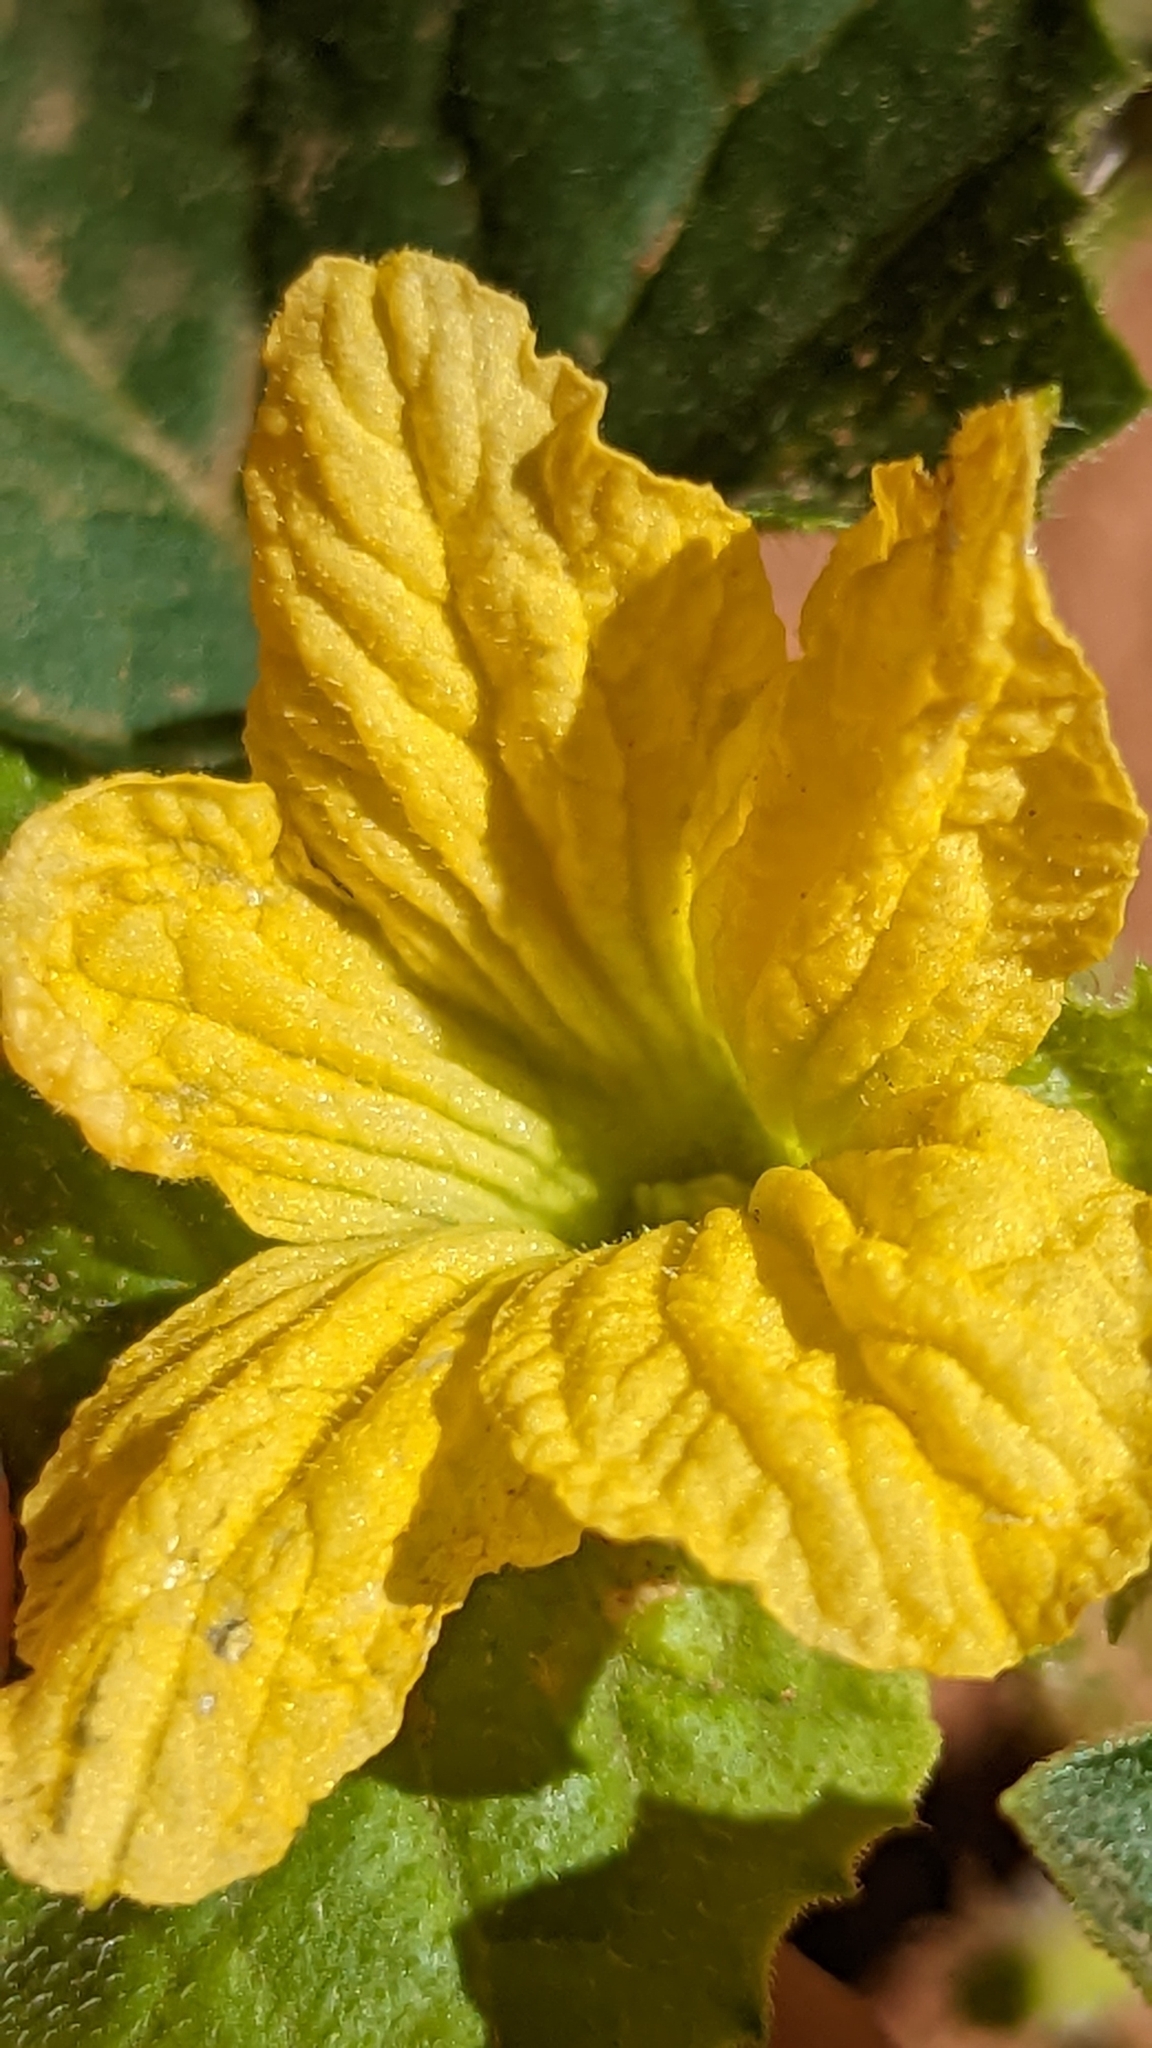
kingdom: Plantae
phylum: Tracheophyta
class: Magnoliopsida
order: Cucurbitales
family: Cucurbitaceae
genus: Cucumis
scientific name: Cucumis melo
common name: Melon
